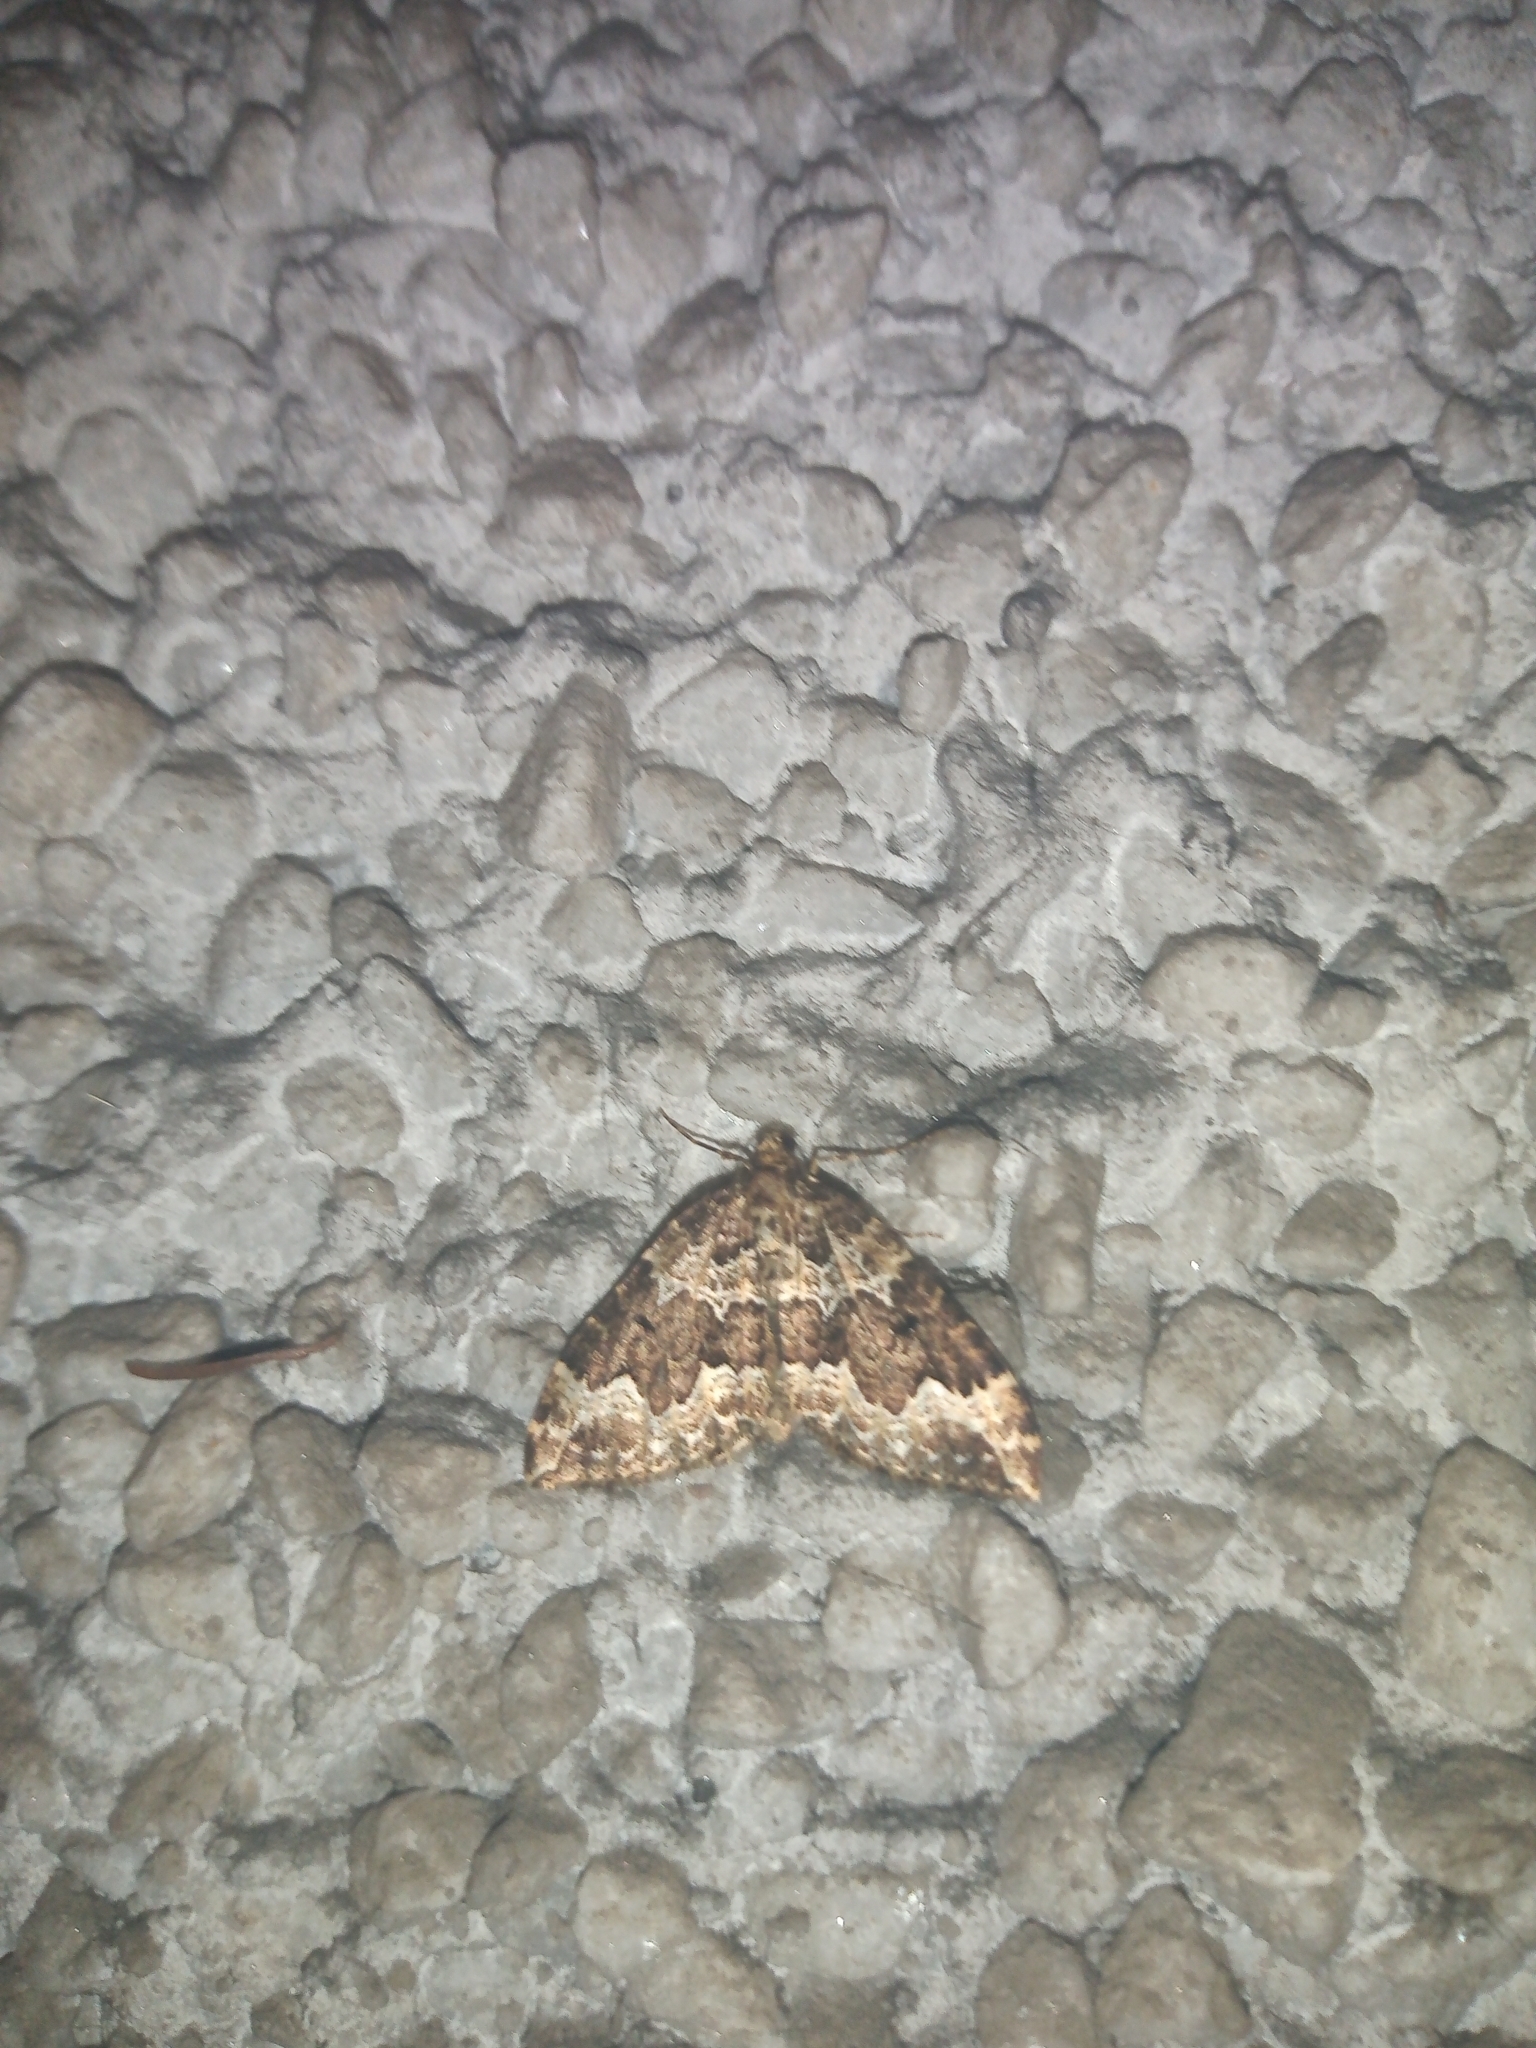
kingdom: Animalia
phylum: Arthropoda
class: Insecta
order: Lepidoptera
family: Geometridae
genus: Lampropteryx
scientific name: Lampropteryx suffumata
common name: Water carpet
